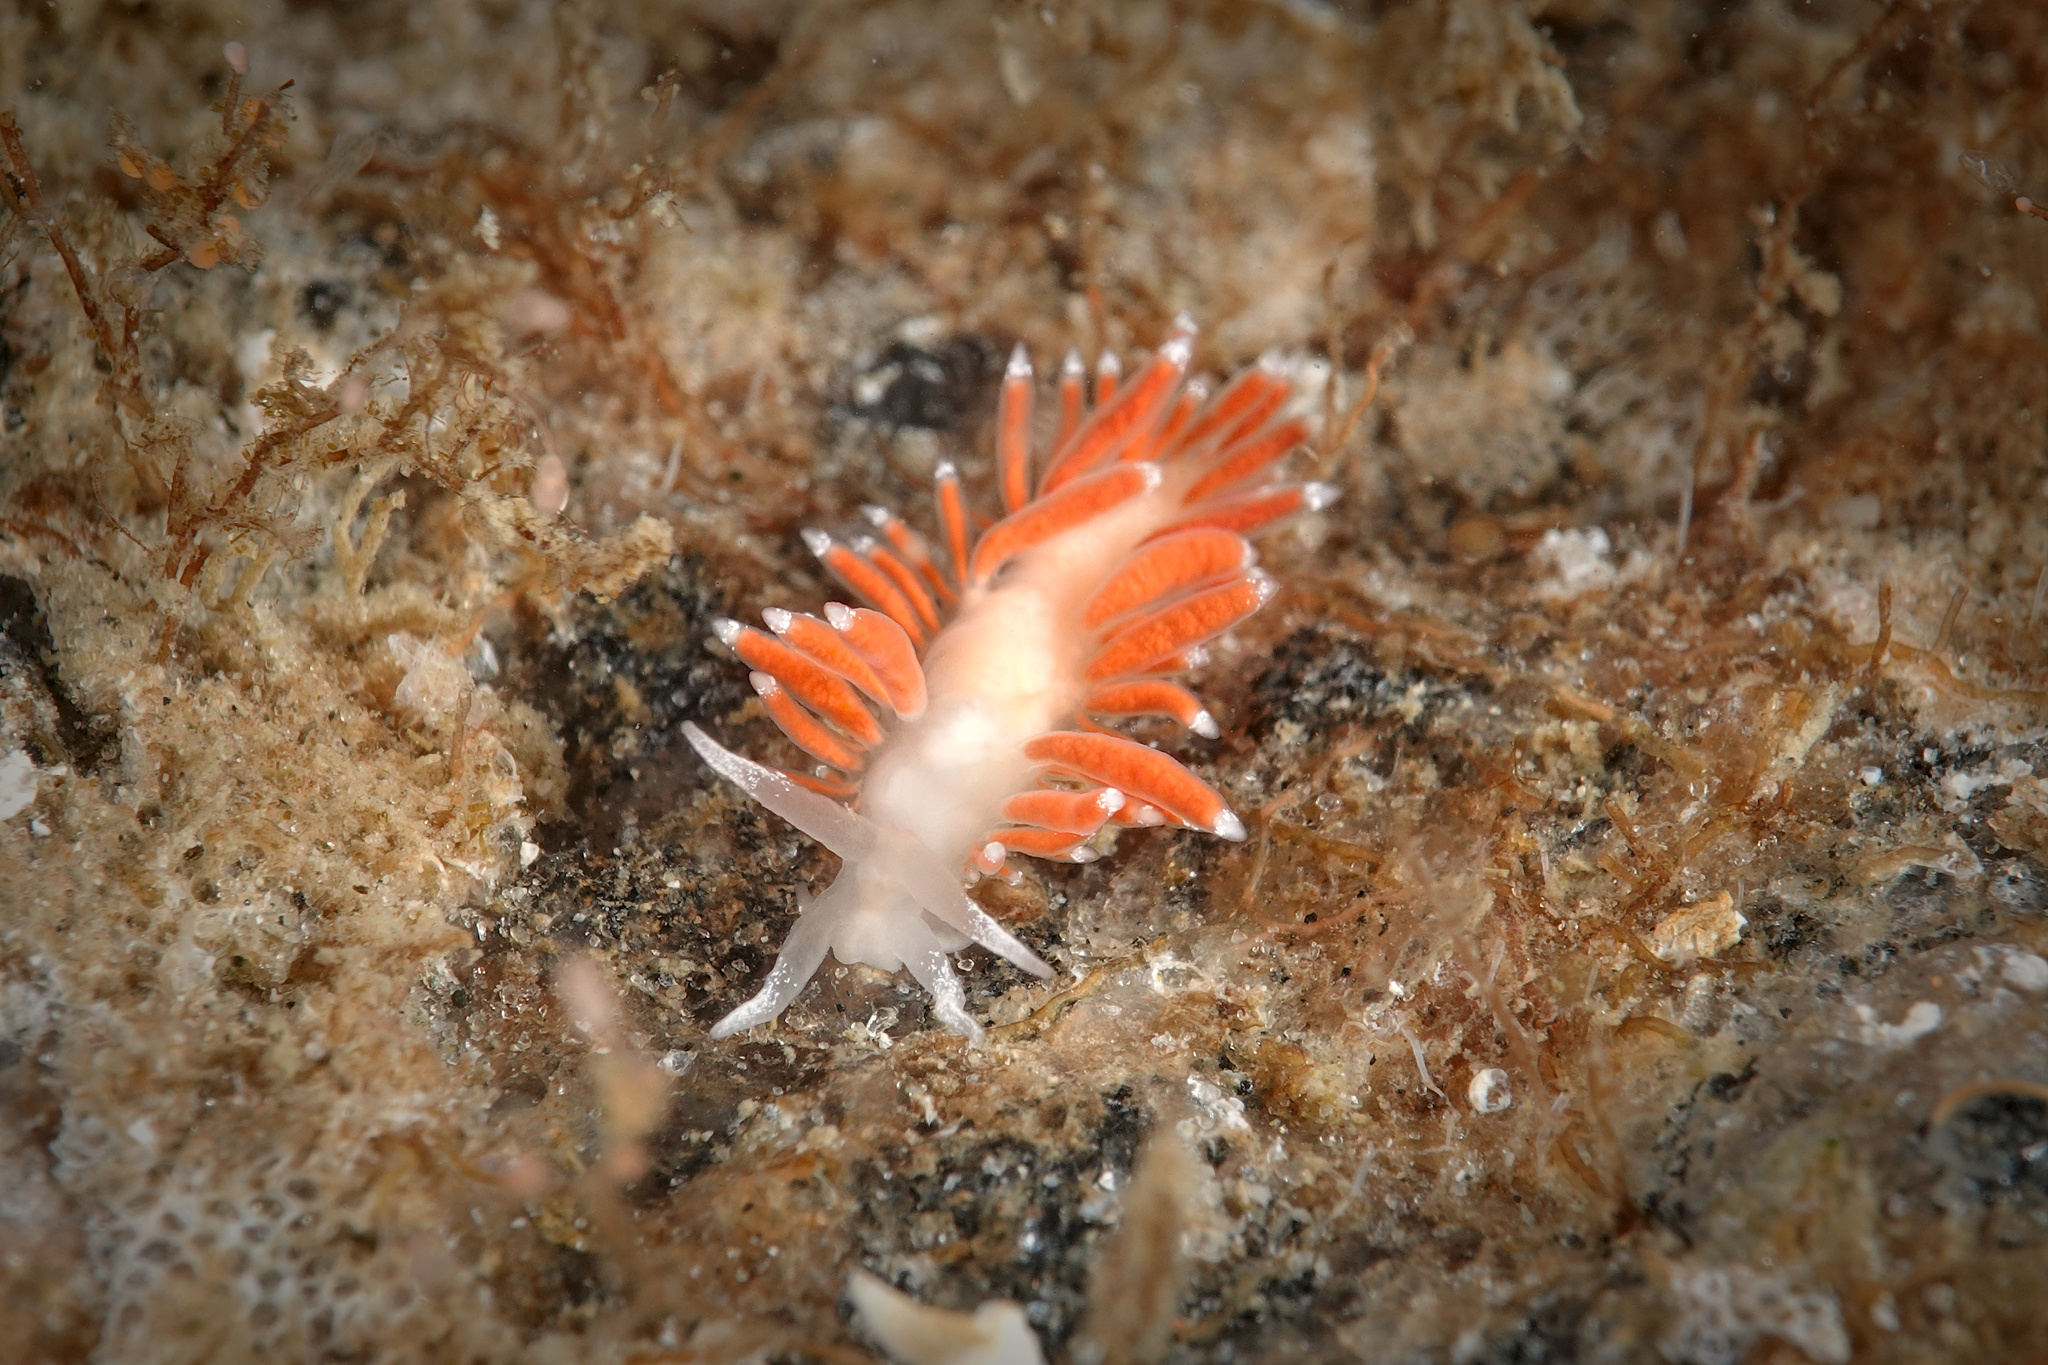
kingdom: Animalia
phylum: Mollusca
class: Gastropoda
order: Nudibranchia
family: Coryphellidae
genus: Coryphella
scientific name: Coryphella gracilis
